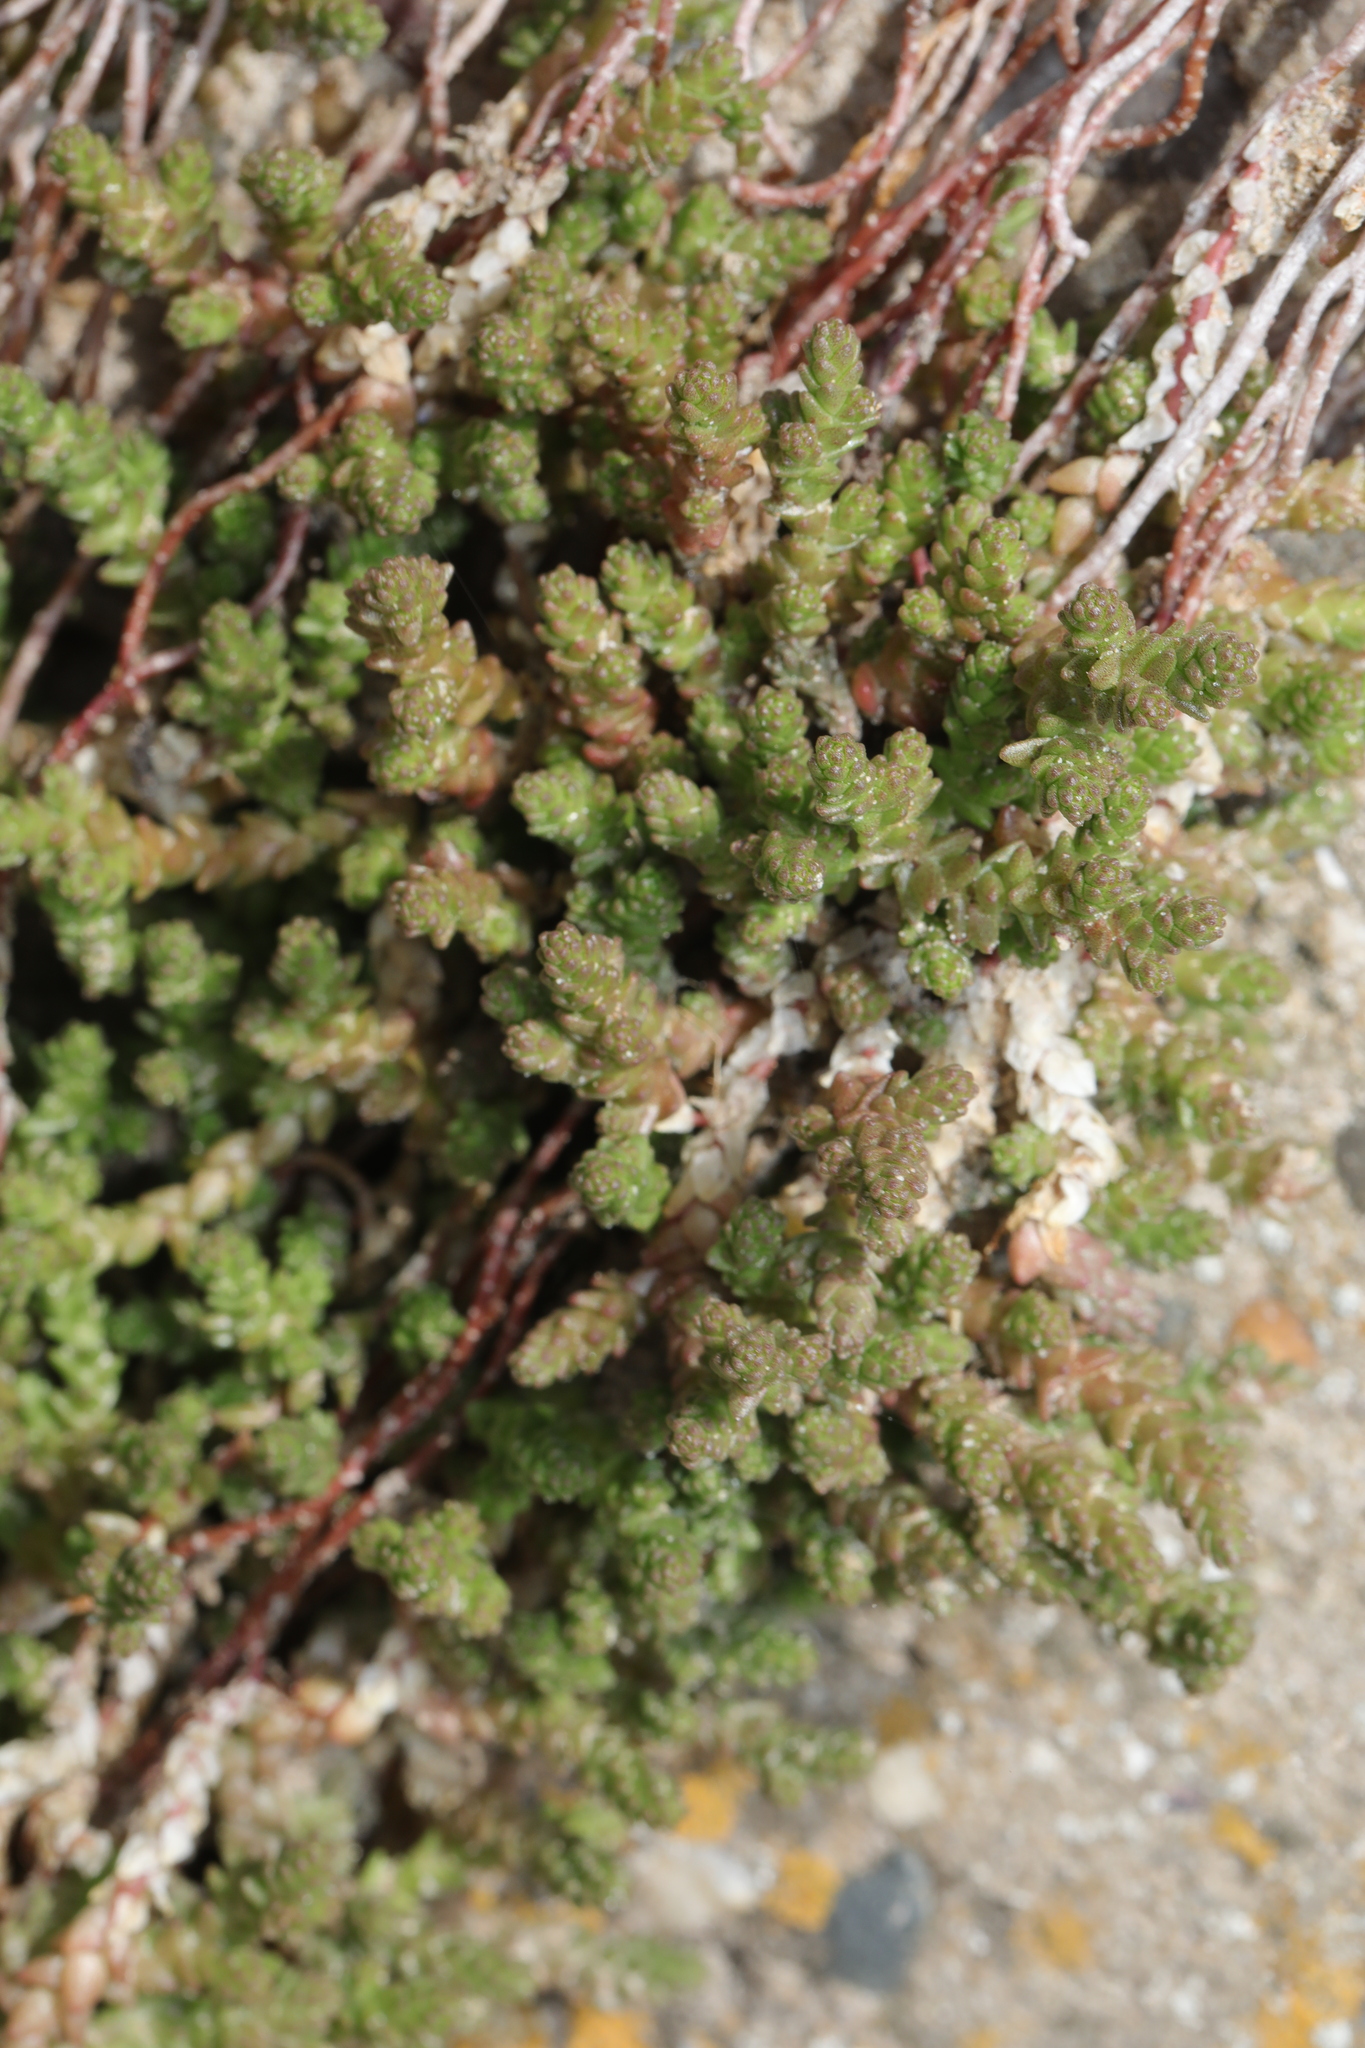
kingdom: Plantae
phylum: Tracheophyta
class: Magnoliopsida
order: Saxifragales
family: Crassulaceae
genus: Sedum
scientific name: Sedum acre
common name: Biting stonecrop
